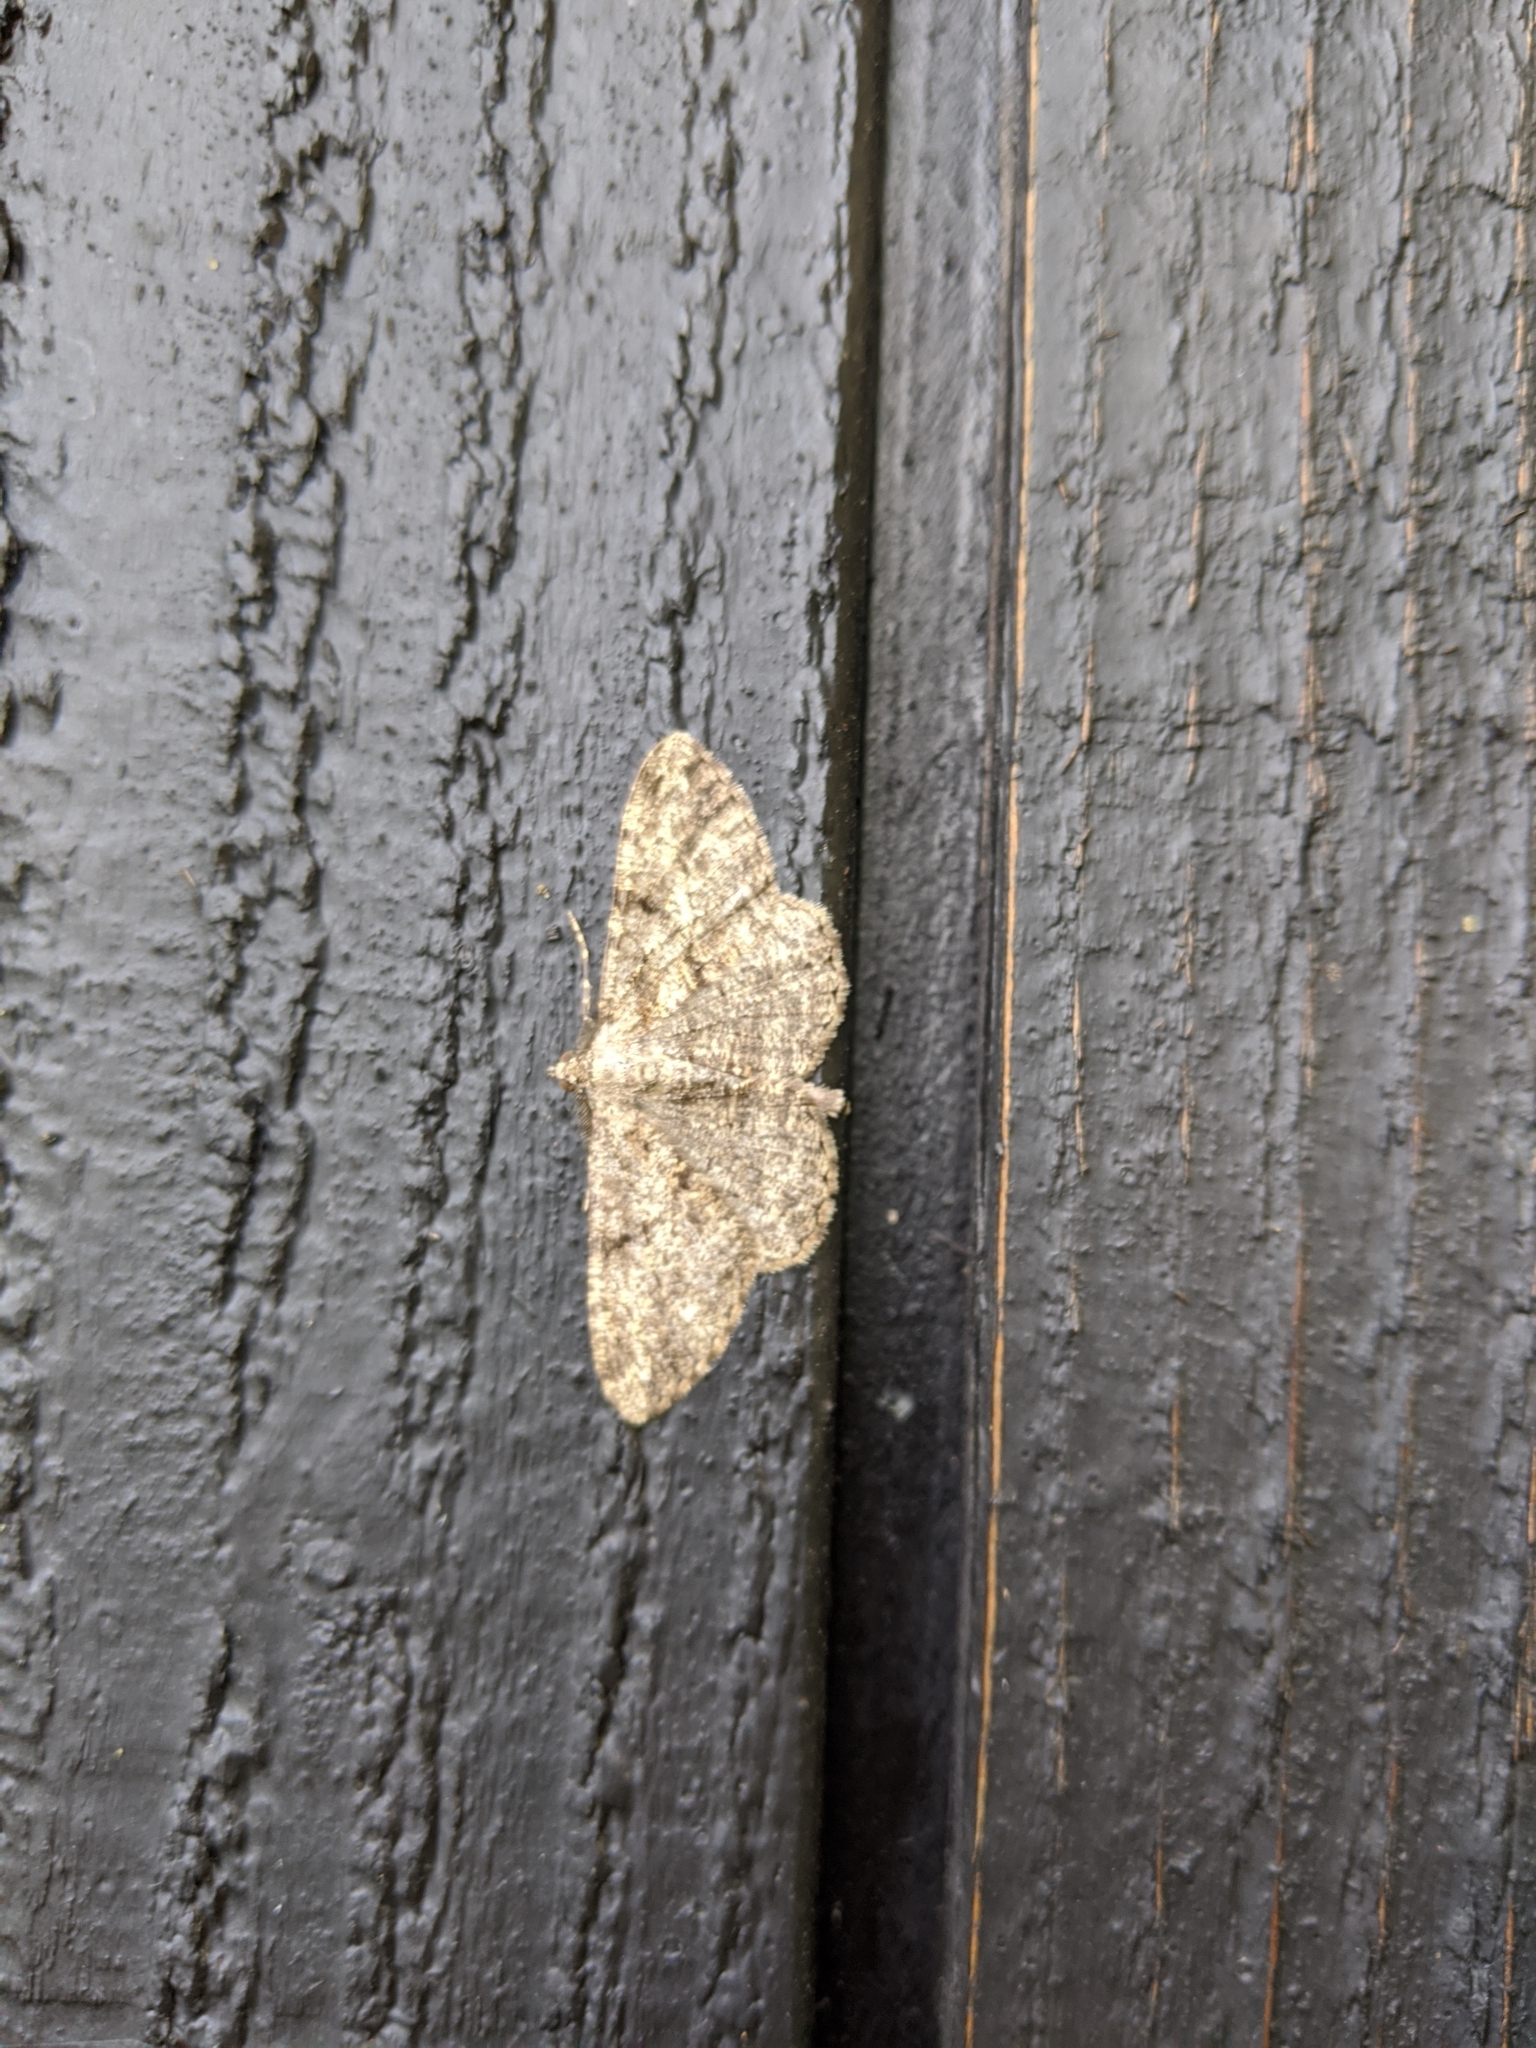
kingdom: Animalia
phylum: Arthropoda
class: Insecta
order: Lepidoptera
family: Geometridae
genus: Peribatodes
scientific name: Peribatodes rhomboidaria
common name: Willow beauty
